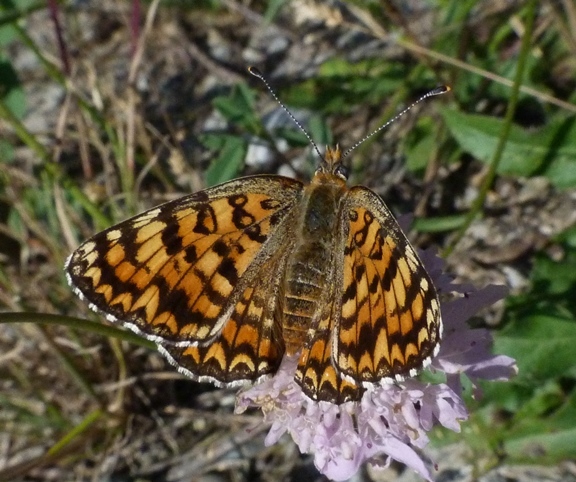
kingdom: Animalia
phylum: Arthropoda
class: Insecta
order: Lepidoptera
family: Nymphalidae
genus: Melitaea
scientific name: Melitaea phoebe
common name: Knapweed fritillary
